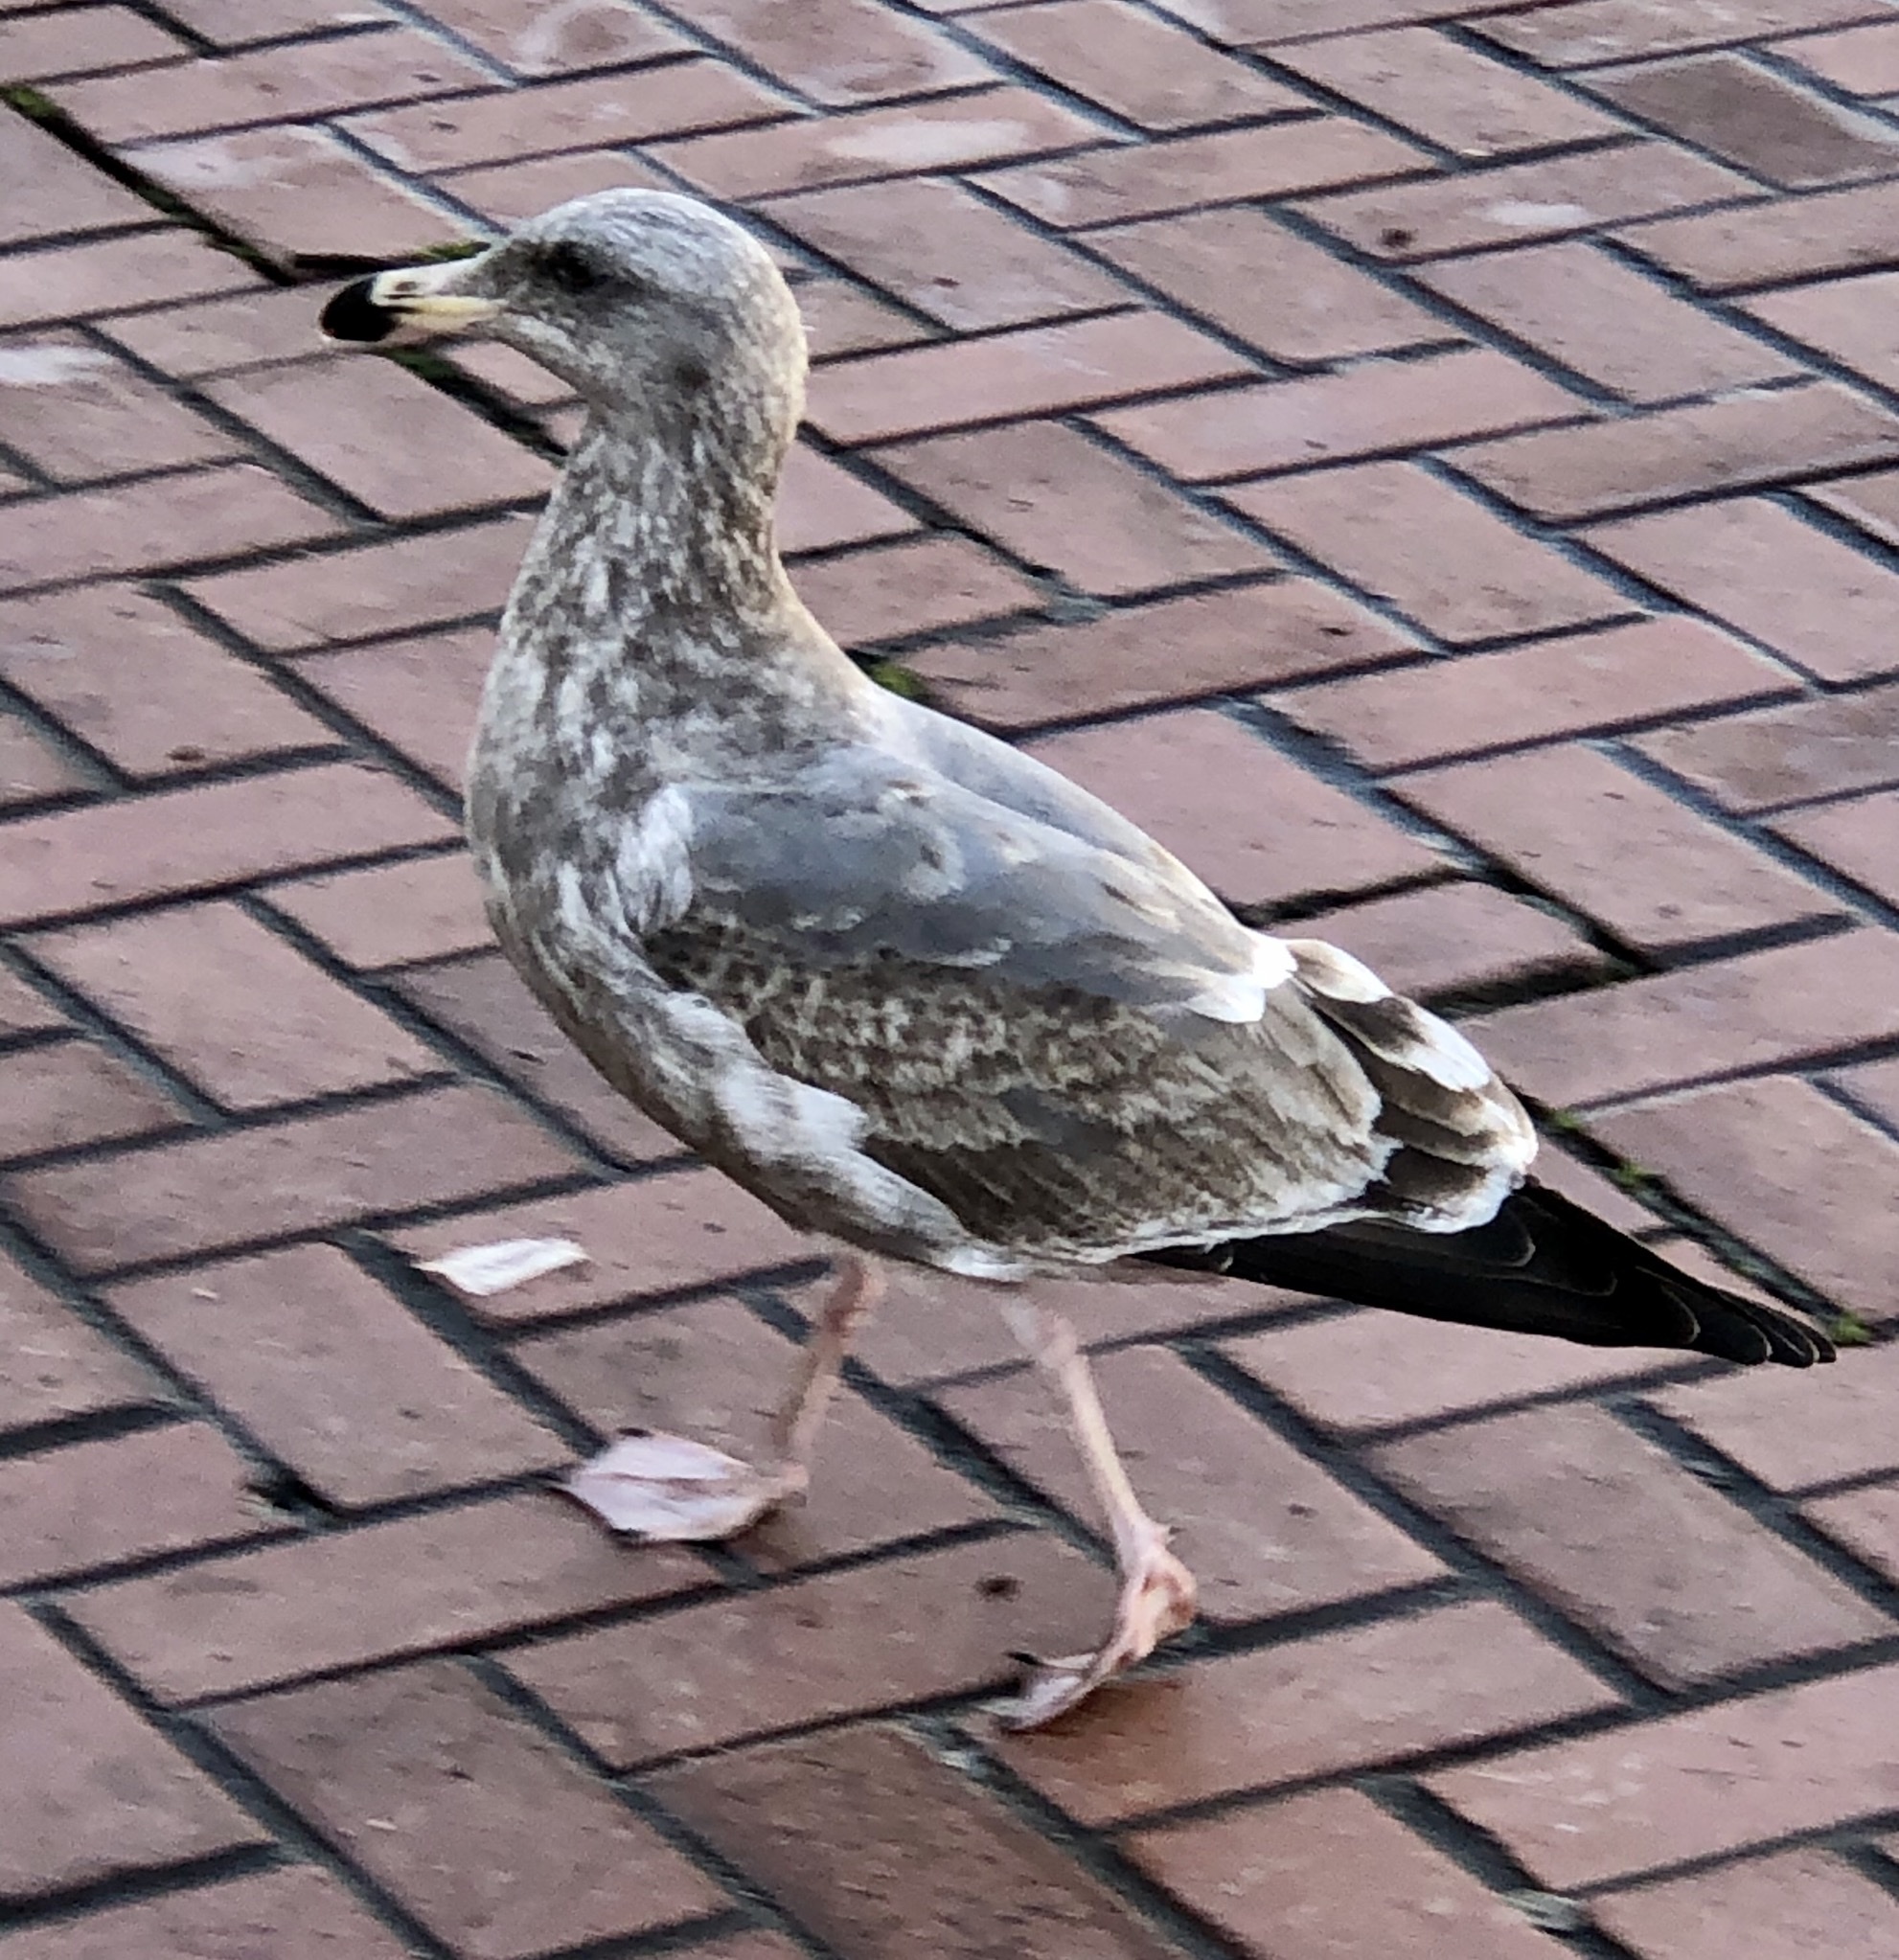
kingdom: Animalia
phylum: Chordata
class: Aves
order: Charadriiformes
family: Laridae
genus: Larus
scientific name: Larus occidentalis
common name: Western gull
